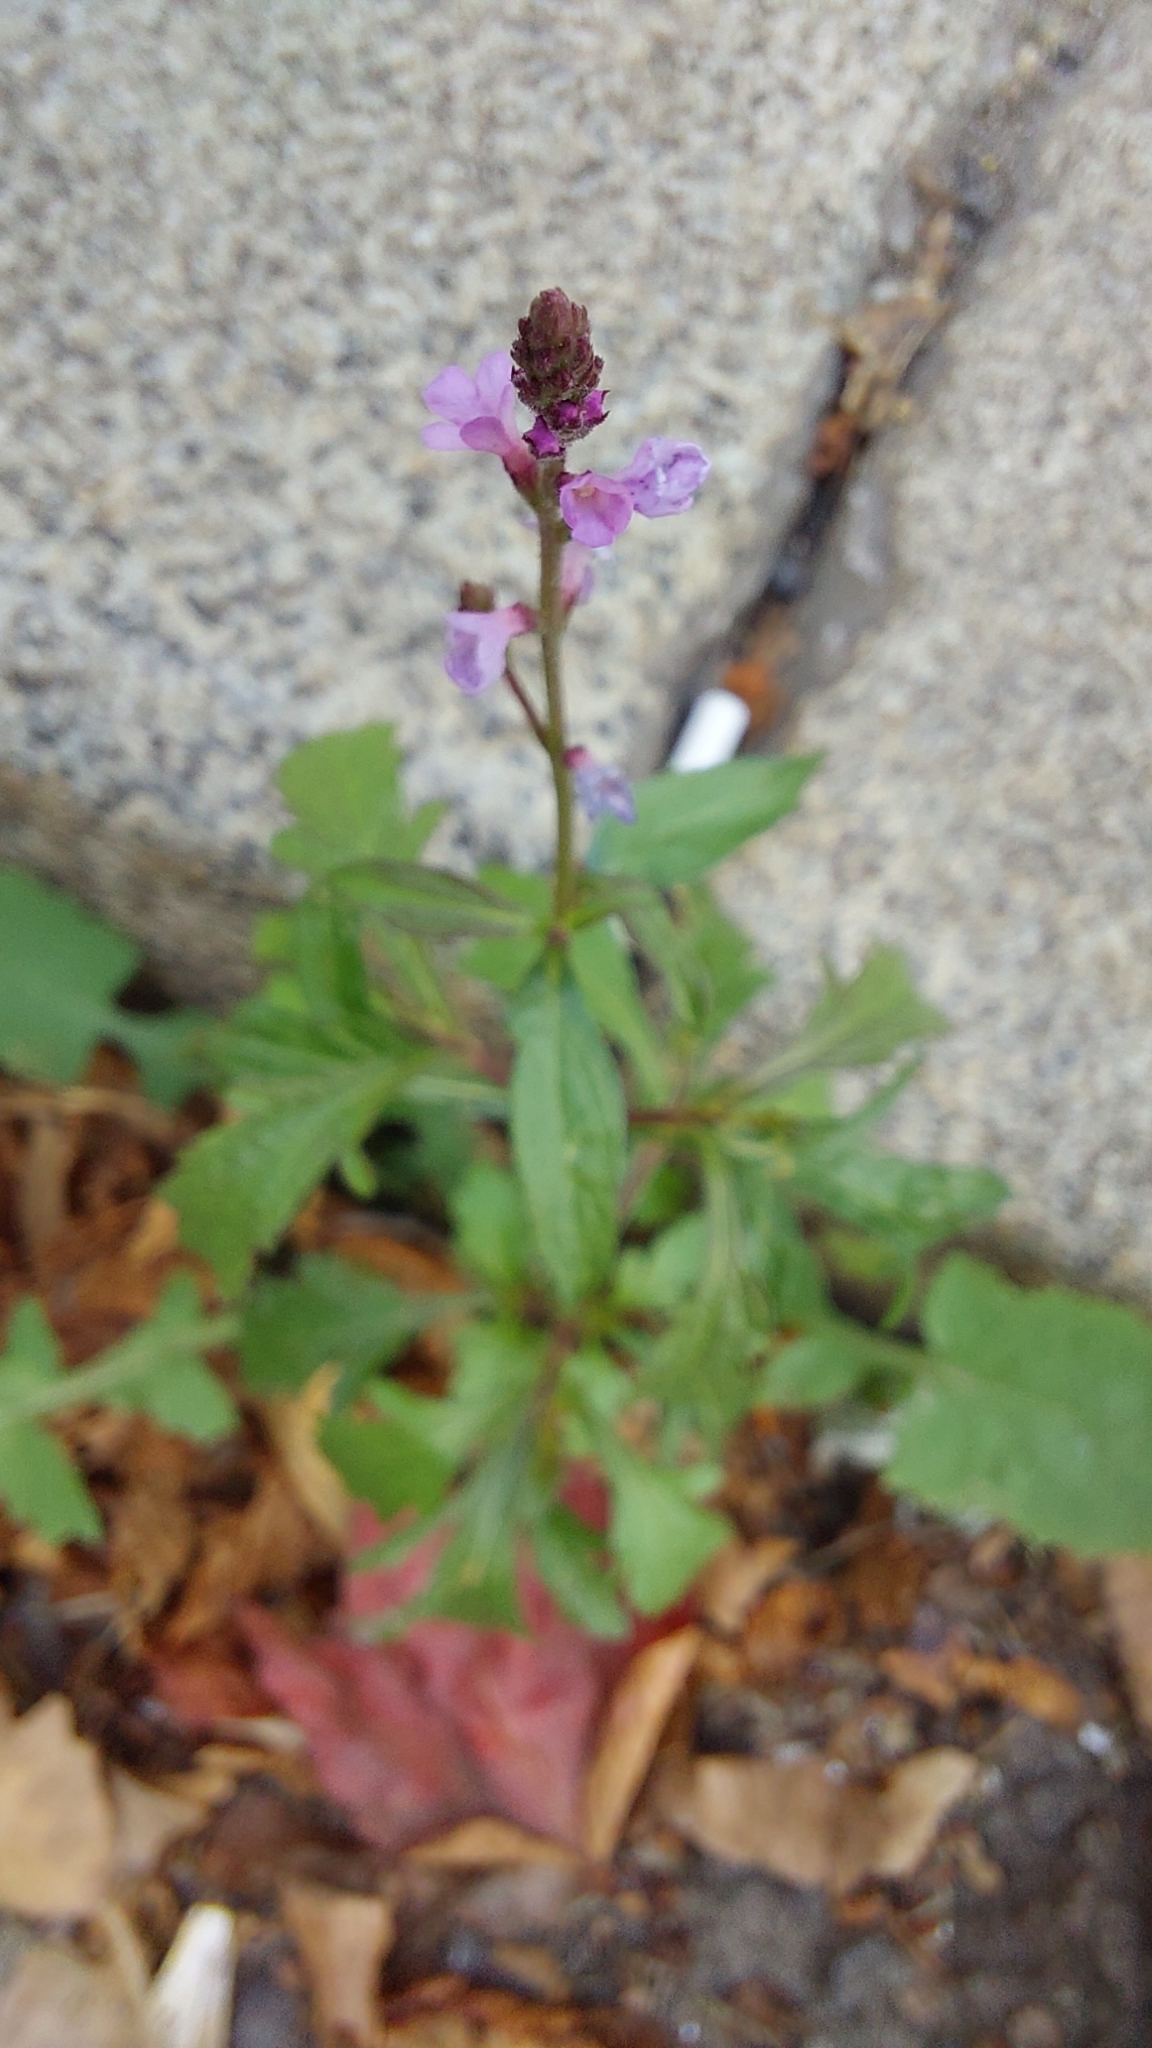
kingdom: Plantae
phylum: Tracheophyta
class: Magnoliopsida
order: Lamiales
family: Verbenaceae
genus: Verbena
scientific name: Verbena officinalis
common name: Vervain
